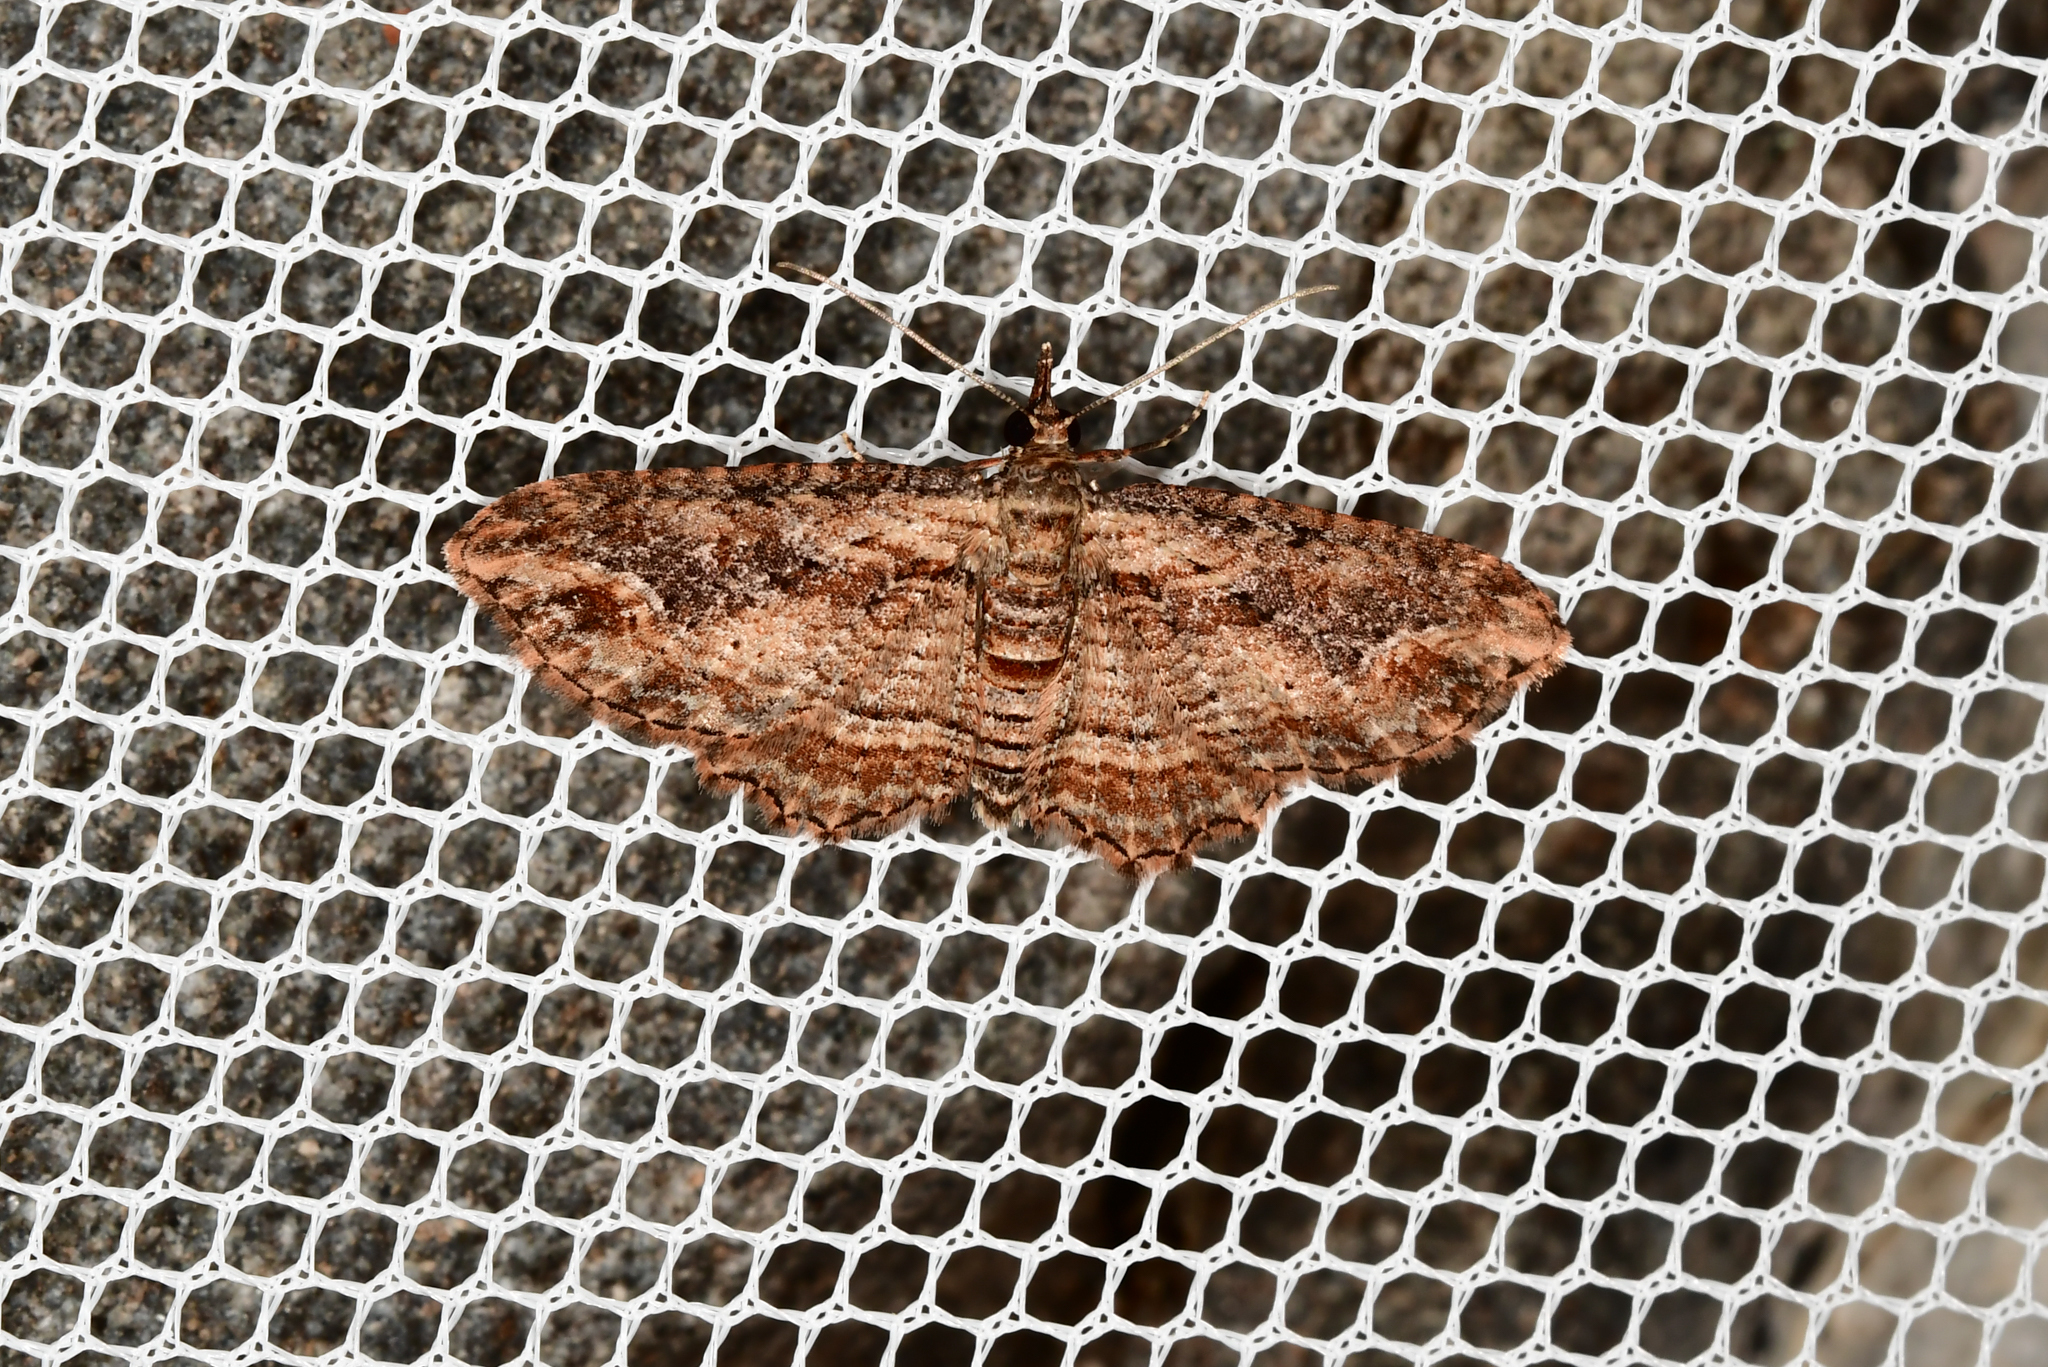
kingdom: Animalia
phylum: Arthropoda
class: Insecta
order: Lepidoptera
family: Geometridae
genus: Chloroclystis
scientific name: Chloroclystis filata
